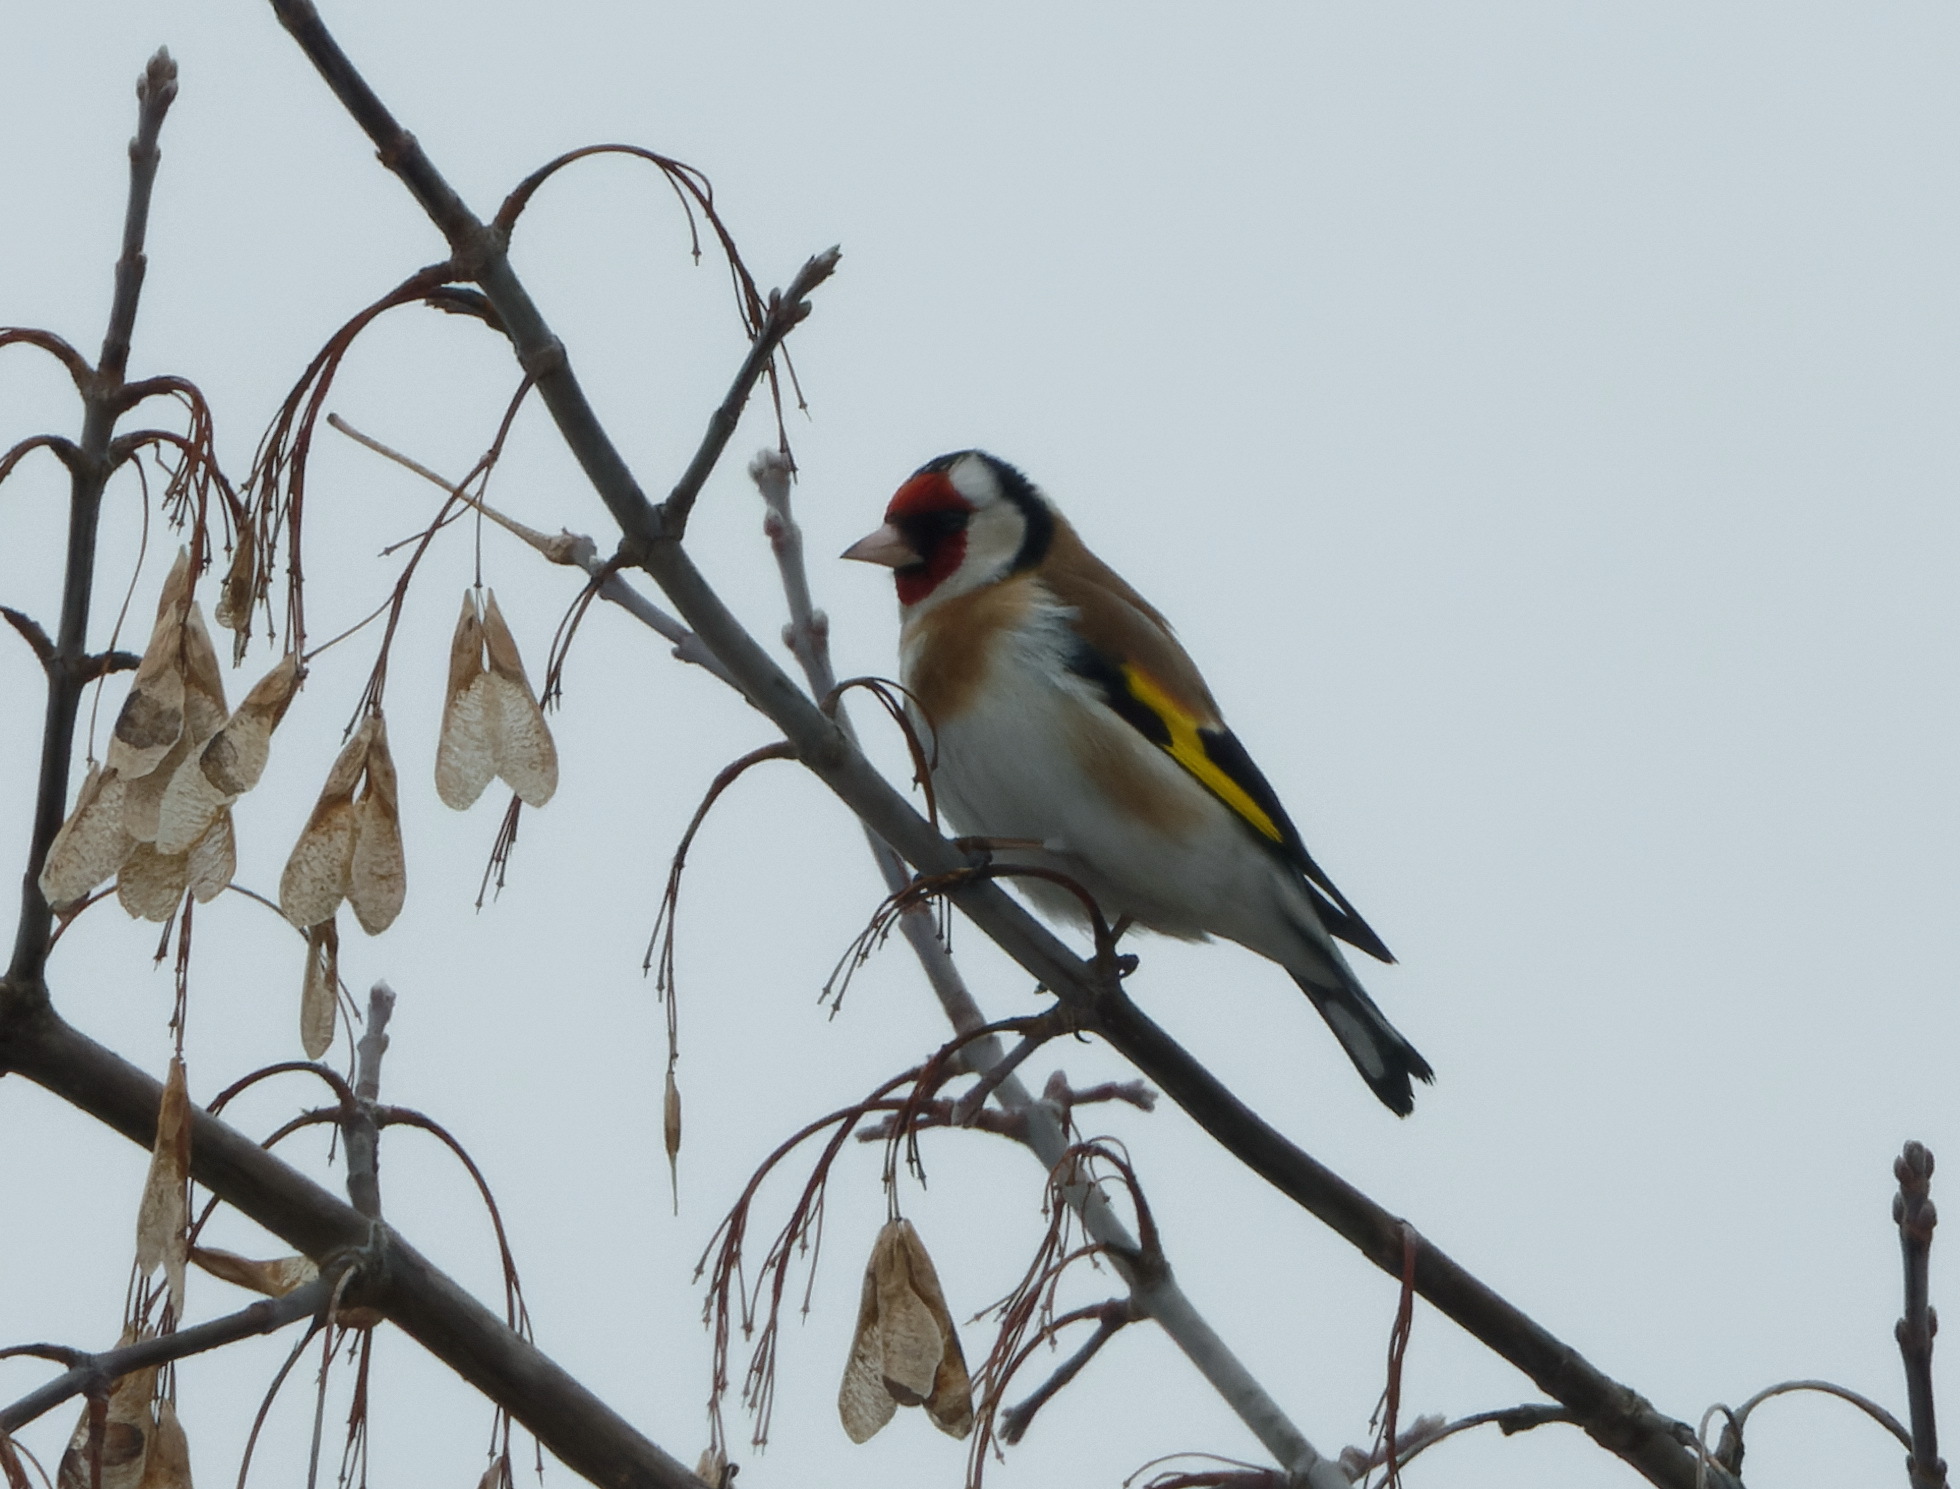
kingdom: Animalia
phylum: Chordata
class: Aves
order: Passeriformes
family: Fringillidae
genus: Carduelis
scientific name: Carduelis carduelis
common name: European goldfinch
